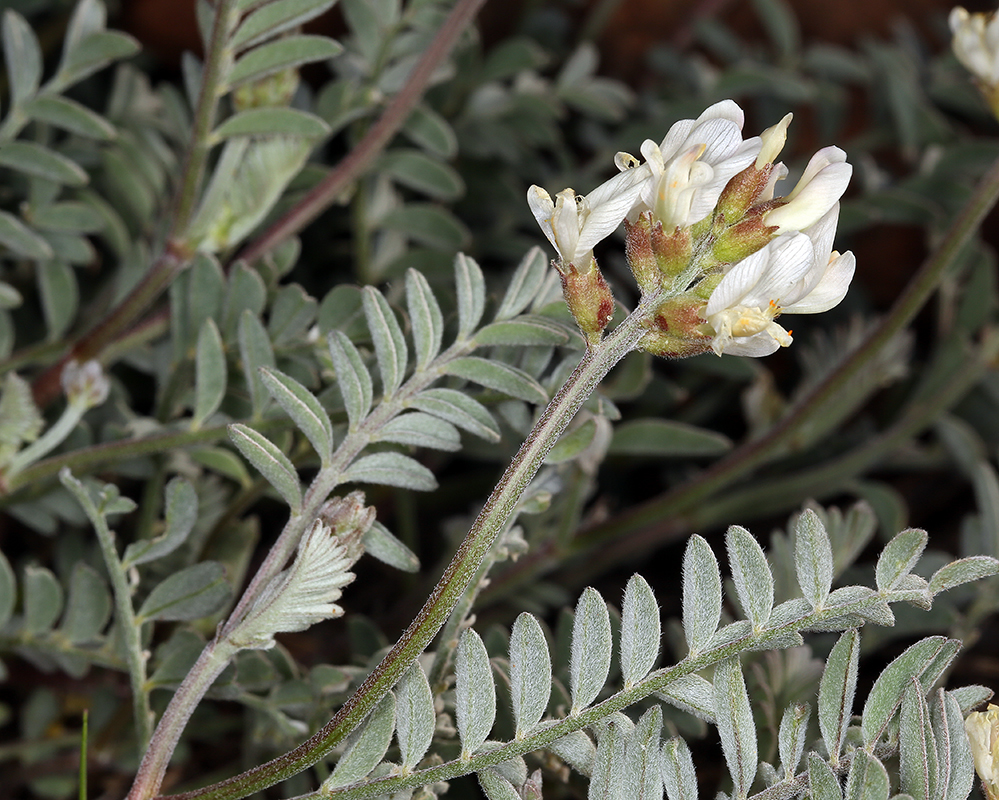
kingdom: Plantae
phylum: Tracheophyta
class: Magnoliopsida
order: Fabales
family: Fabaceae
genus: Astragalus
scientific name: Astragalus whitneyi
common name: Balloonpod milkvetch
